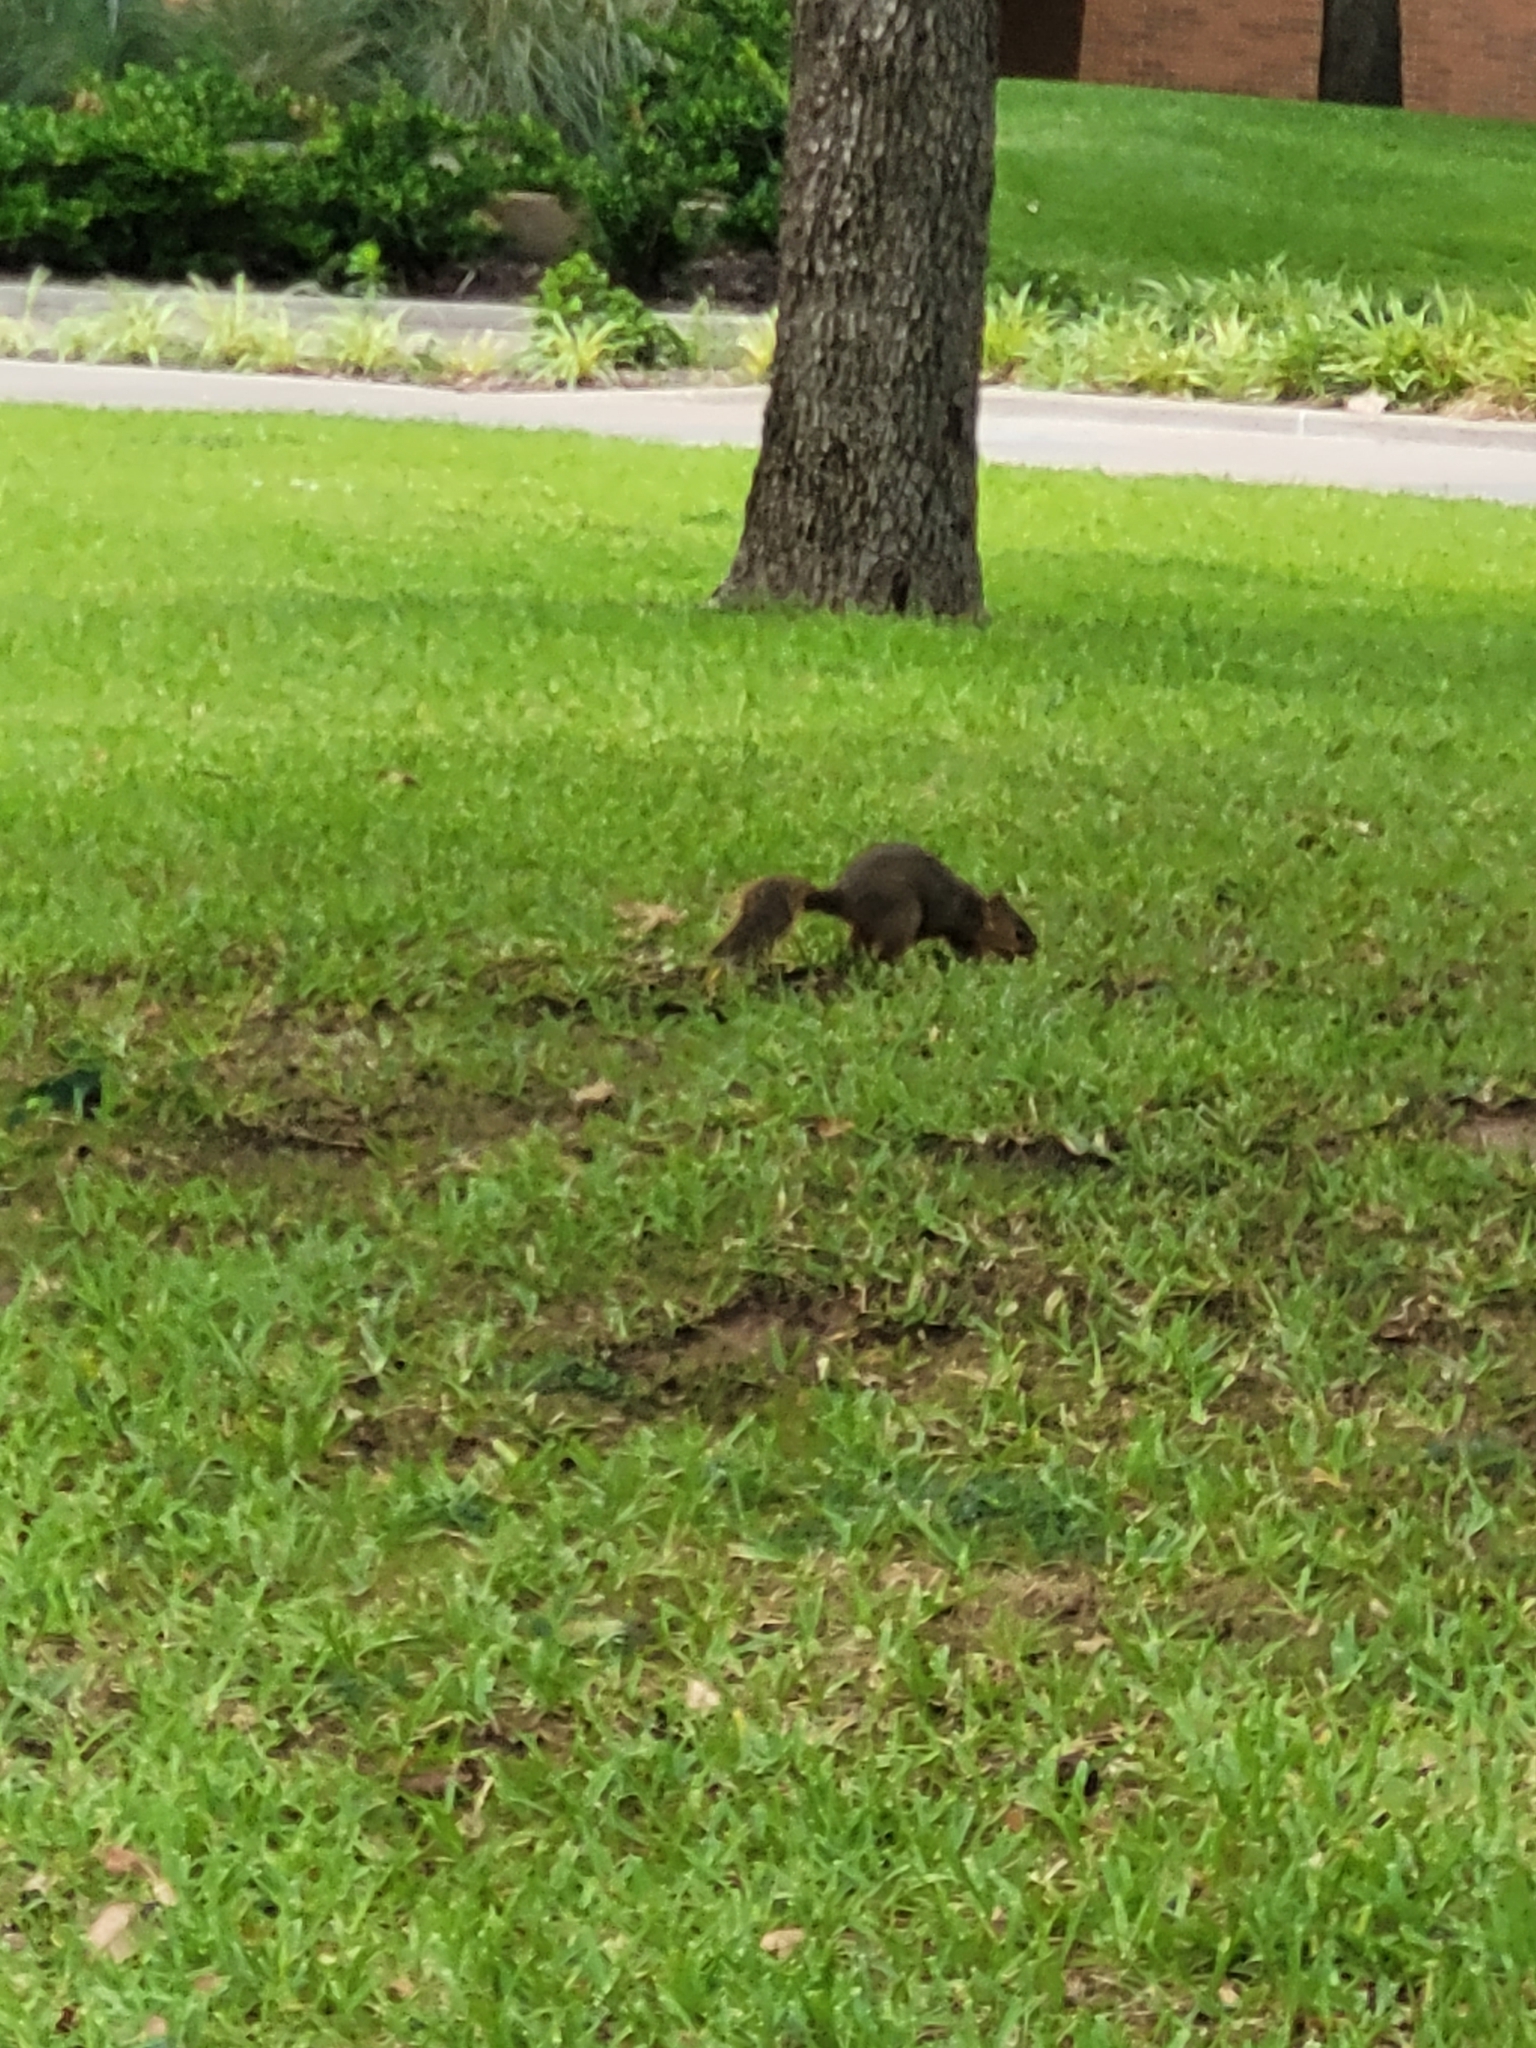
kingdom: Animalia
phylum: Chordata
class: Mammalia
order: Rodentia
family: Sciuridae
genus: Sciurus
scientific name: Sciurus niger
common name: Fox squirrel
